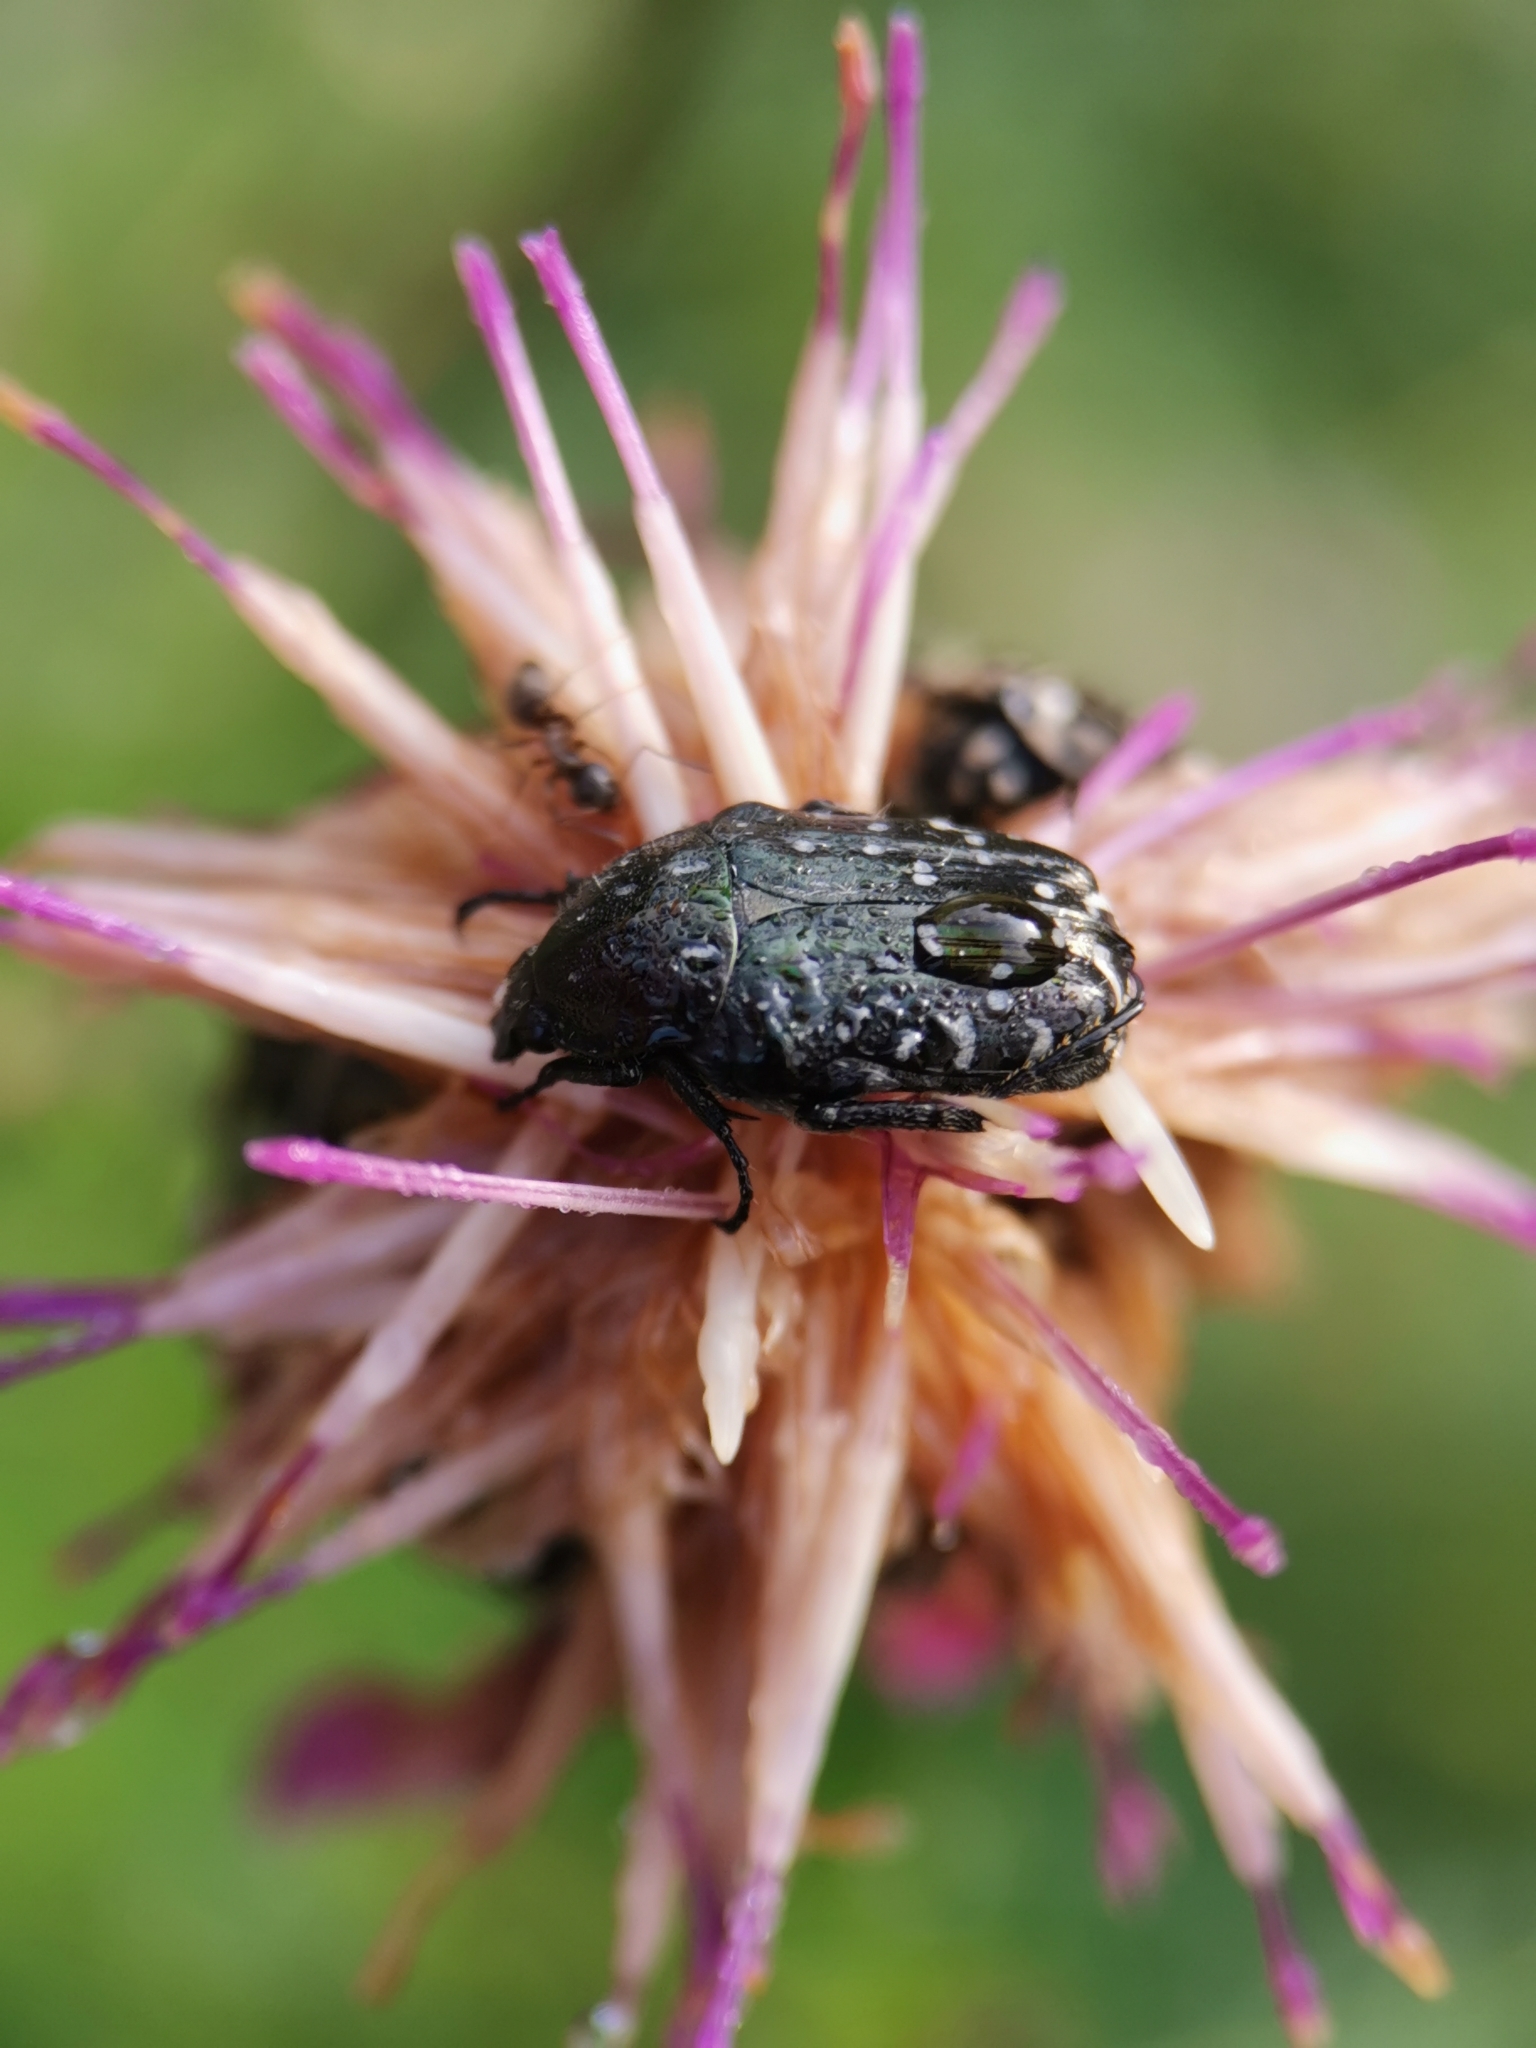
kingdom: Animalia
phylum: Arthropoda
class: Insecta
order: Coleoptera
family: Scarabaeidae
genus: Oxythyrea
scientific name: Oxythyrea funesta
